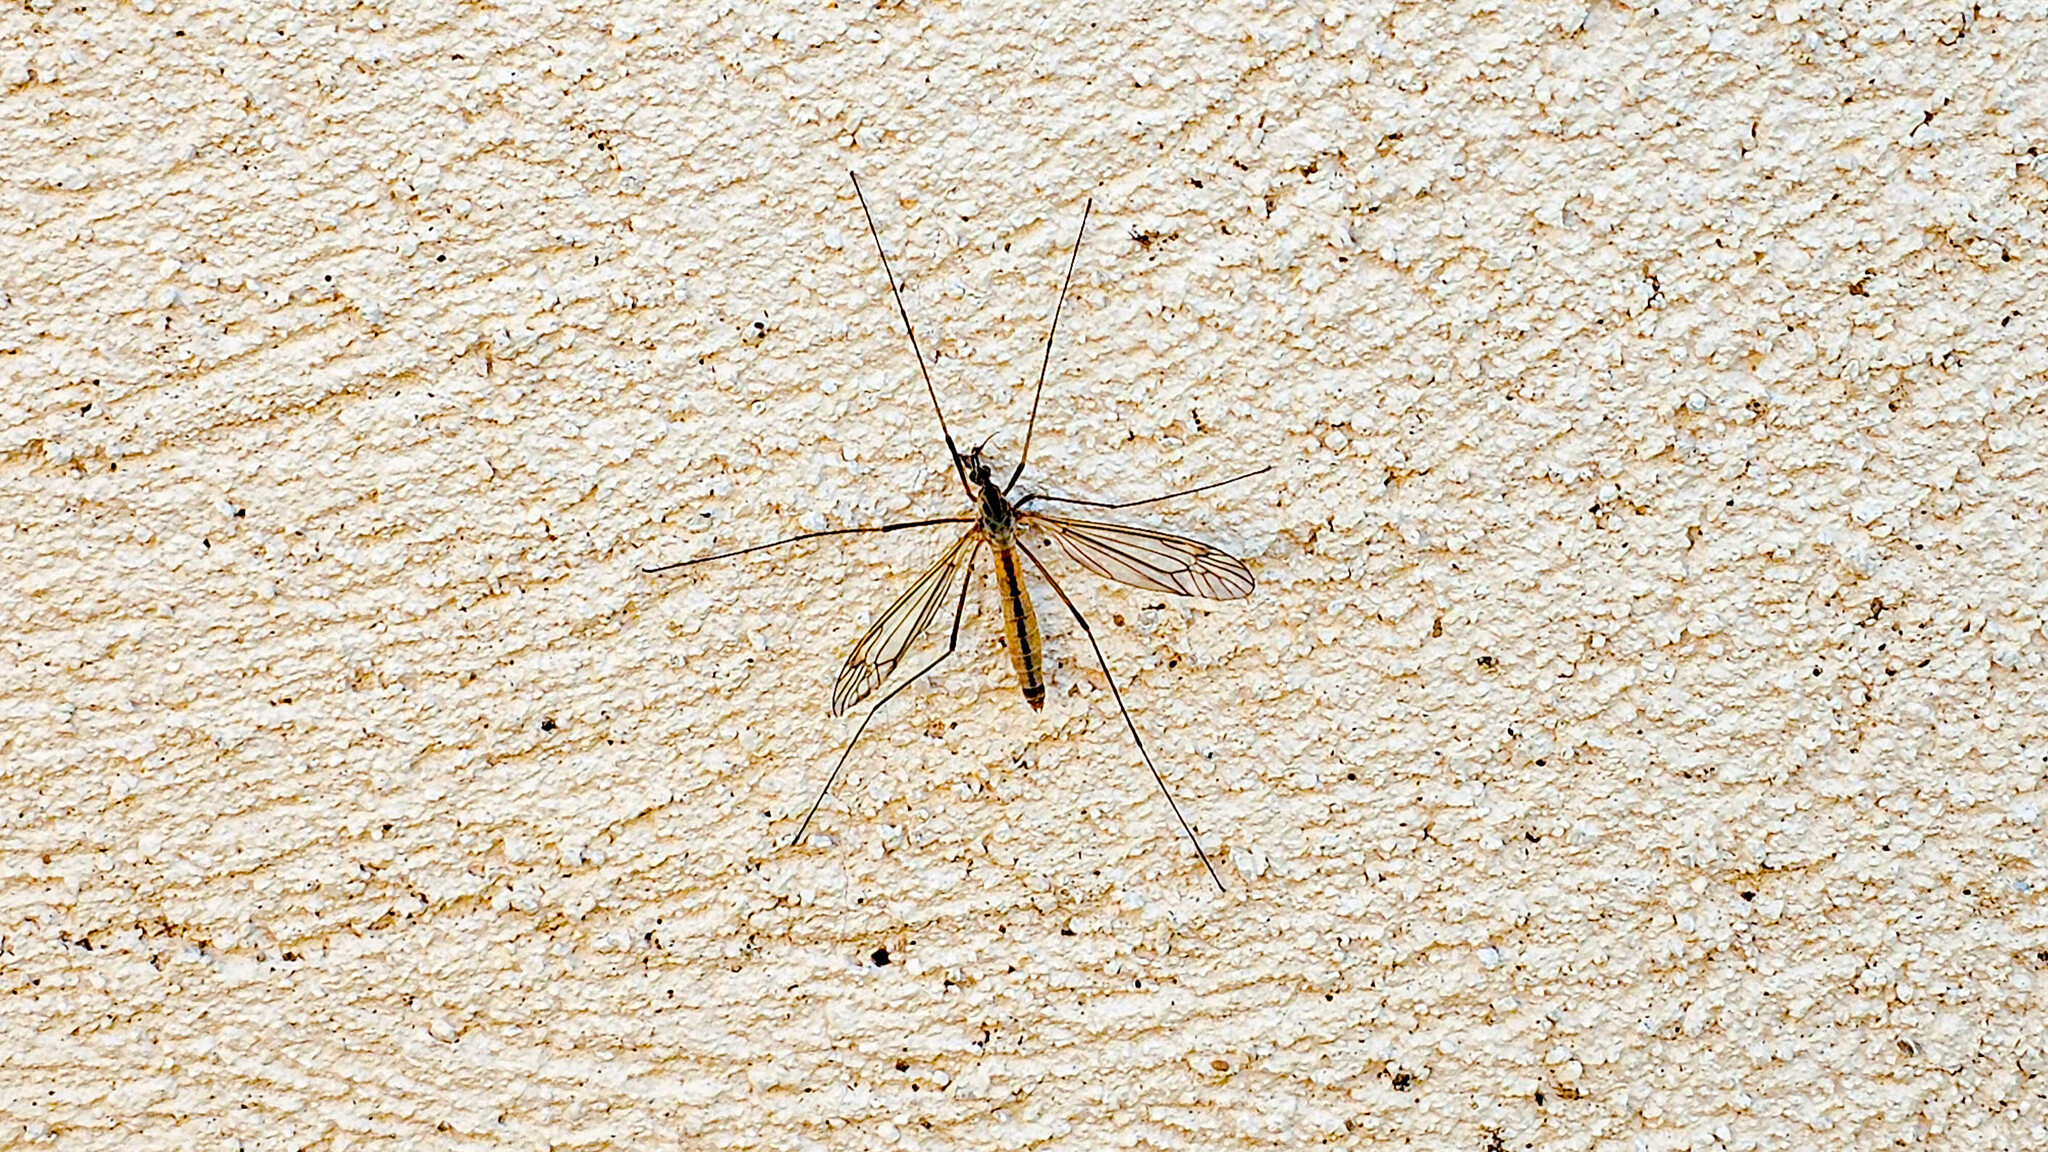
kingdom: Animalia
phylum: Arthropoda
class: Insecta
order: Diptera
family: Tipulidae
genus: Tipula
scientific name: Tipula vernalis
